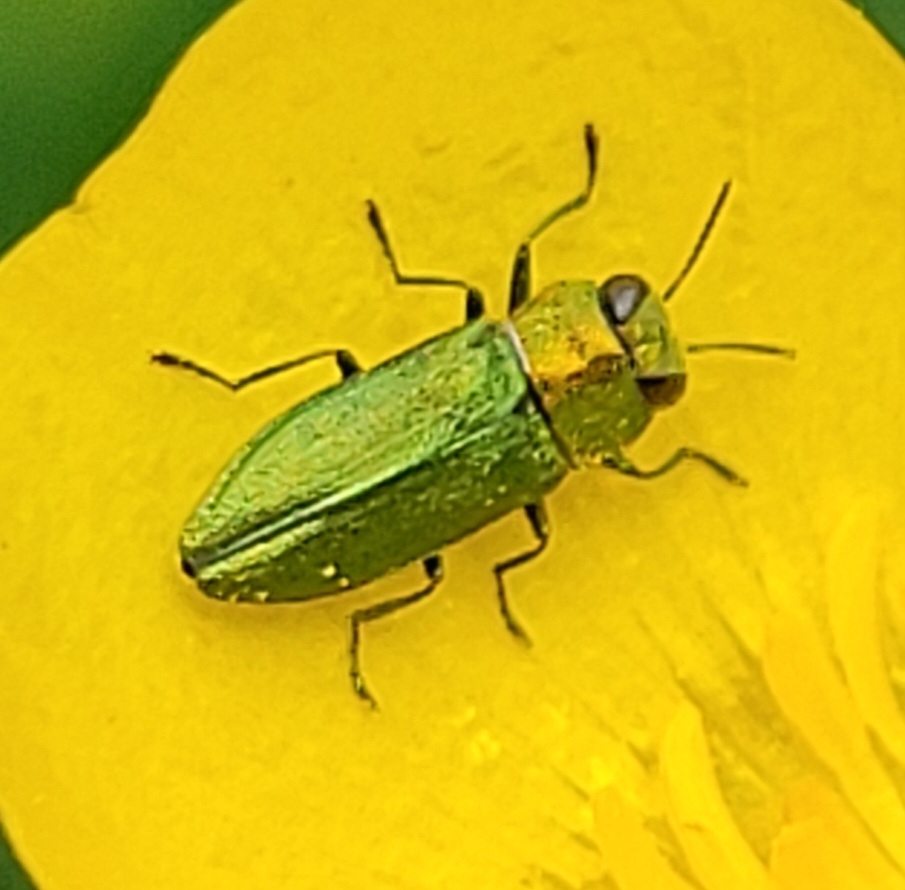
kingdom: Animalia
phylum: Arthropoda
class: Insecta
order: Coleoptera
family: Buprestidae
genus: Anthaxia
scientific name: Anthaxia nitidula
